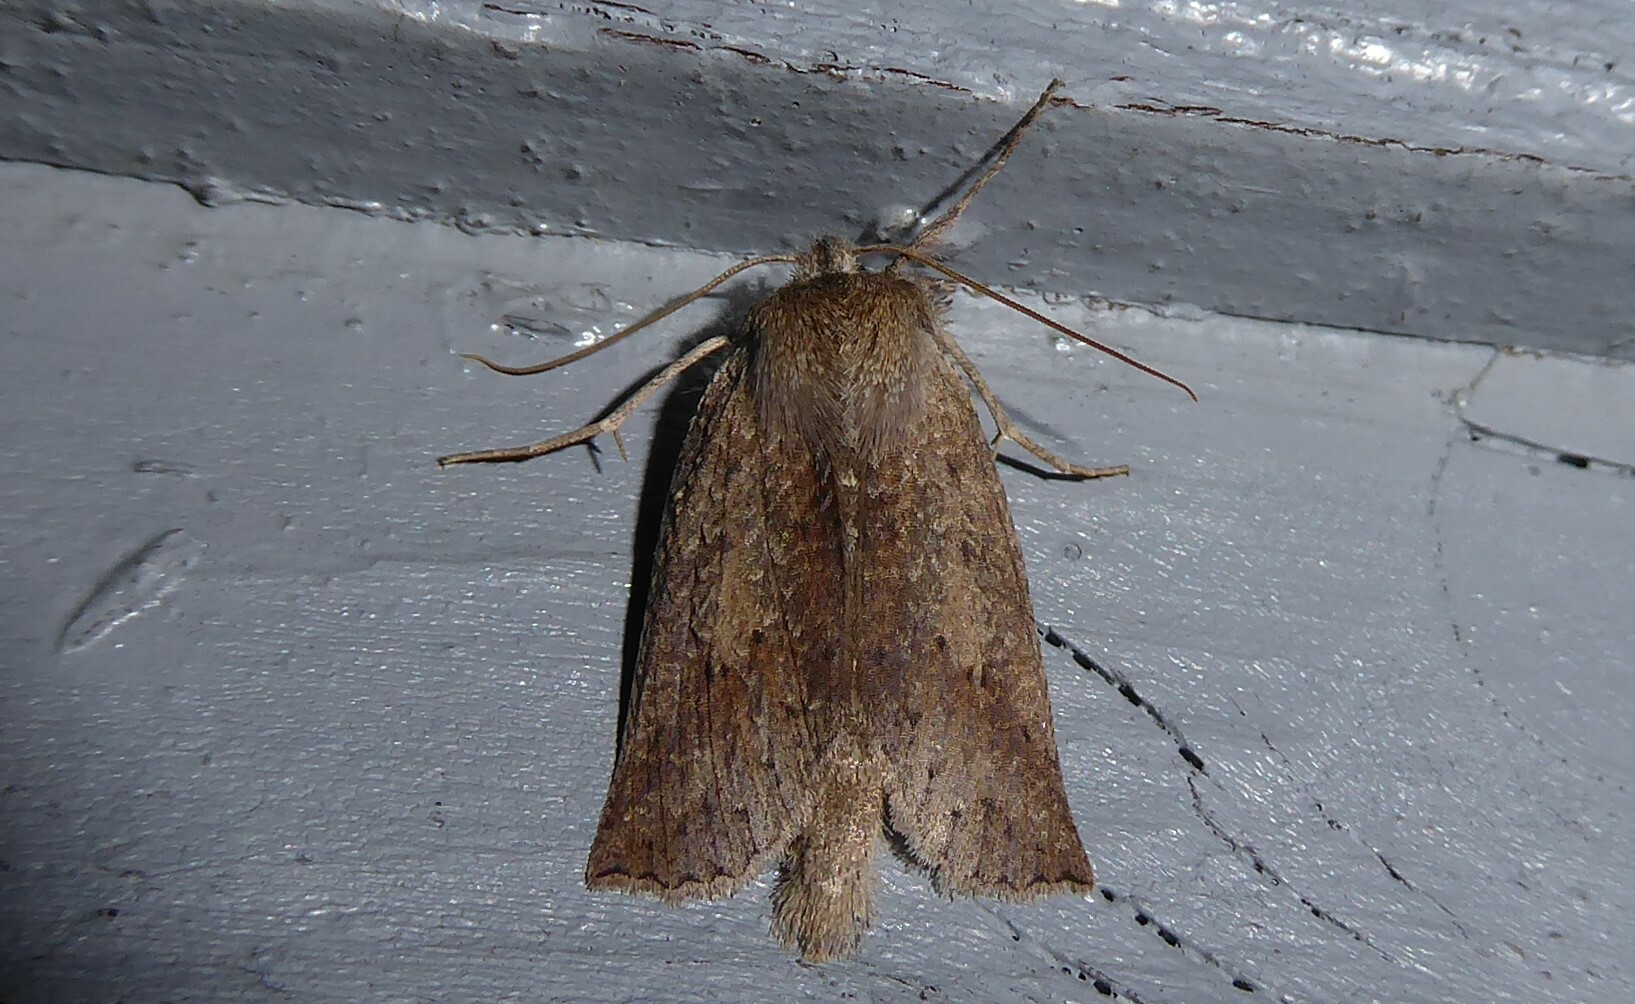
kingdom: Animalia
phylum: Arthropoda
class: Insecta
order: Lepidoptera
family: Geometridae
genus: Declana
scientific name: Declana leptomera
